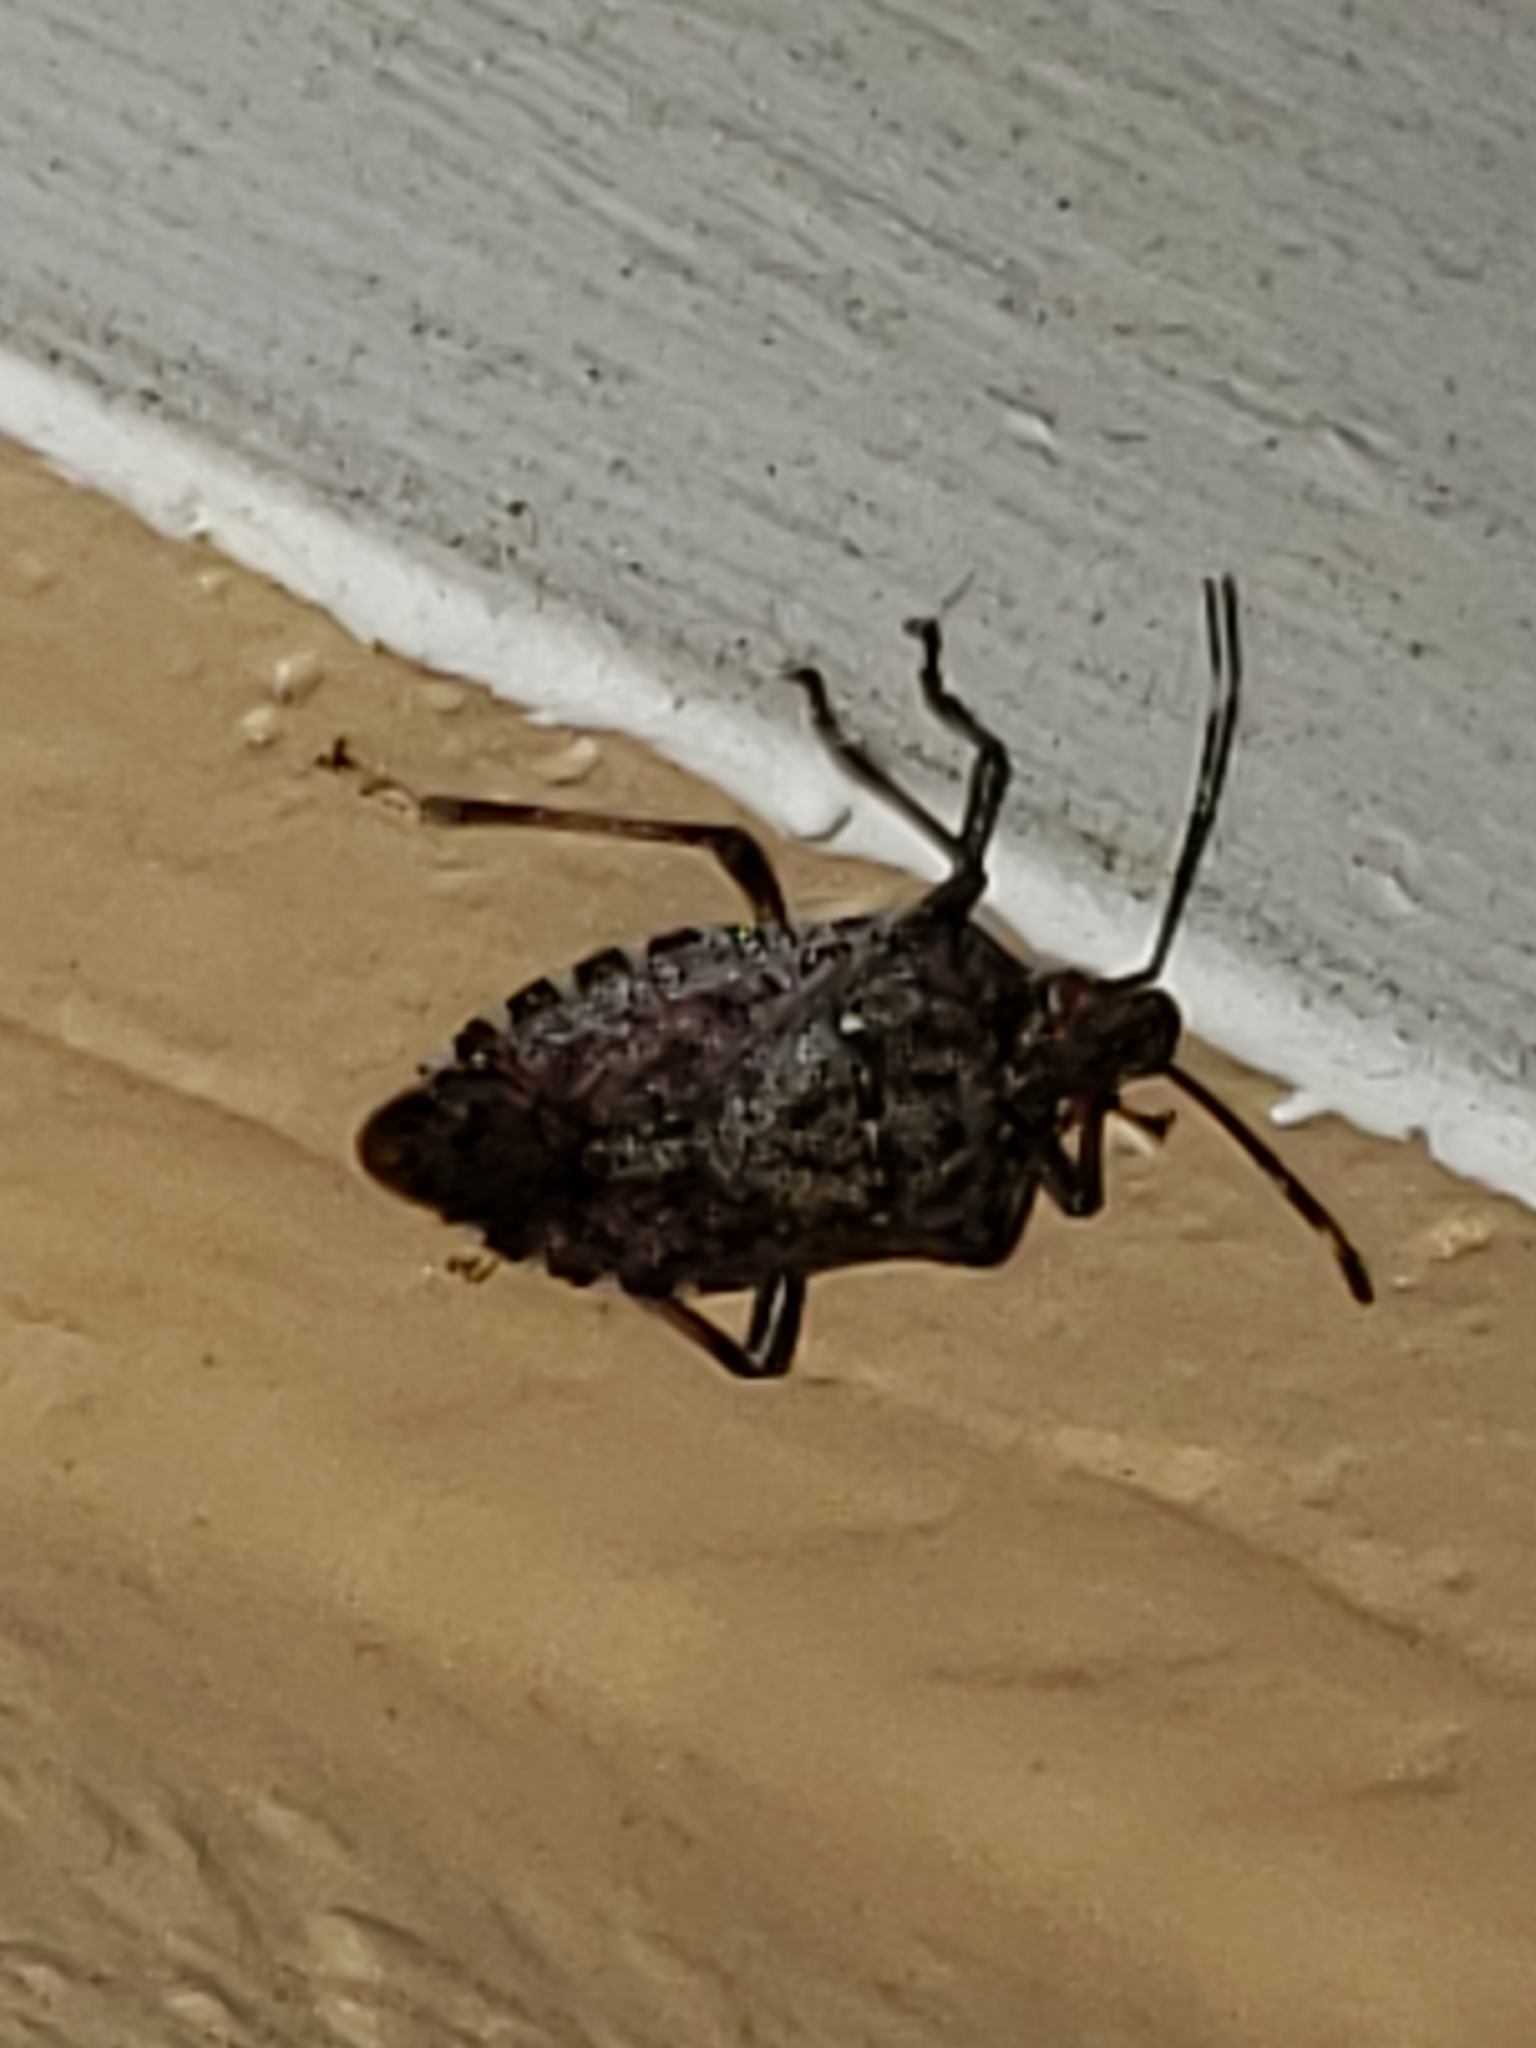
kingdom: Animalia
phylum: Arthropoda
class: Insecta
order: Hemiptera
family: Pentatomidae
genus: Halyomorpha
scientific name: Halyomorpha halys
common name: Brown marmorated stink bug
